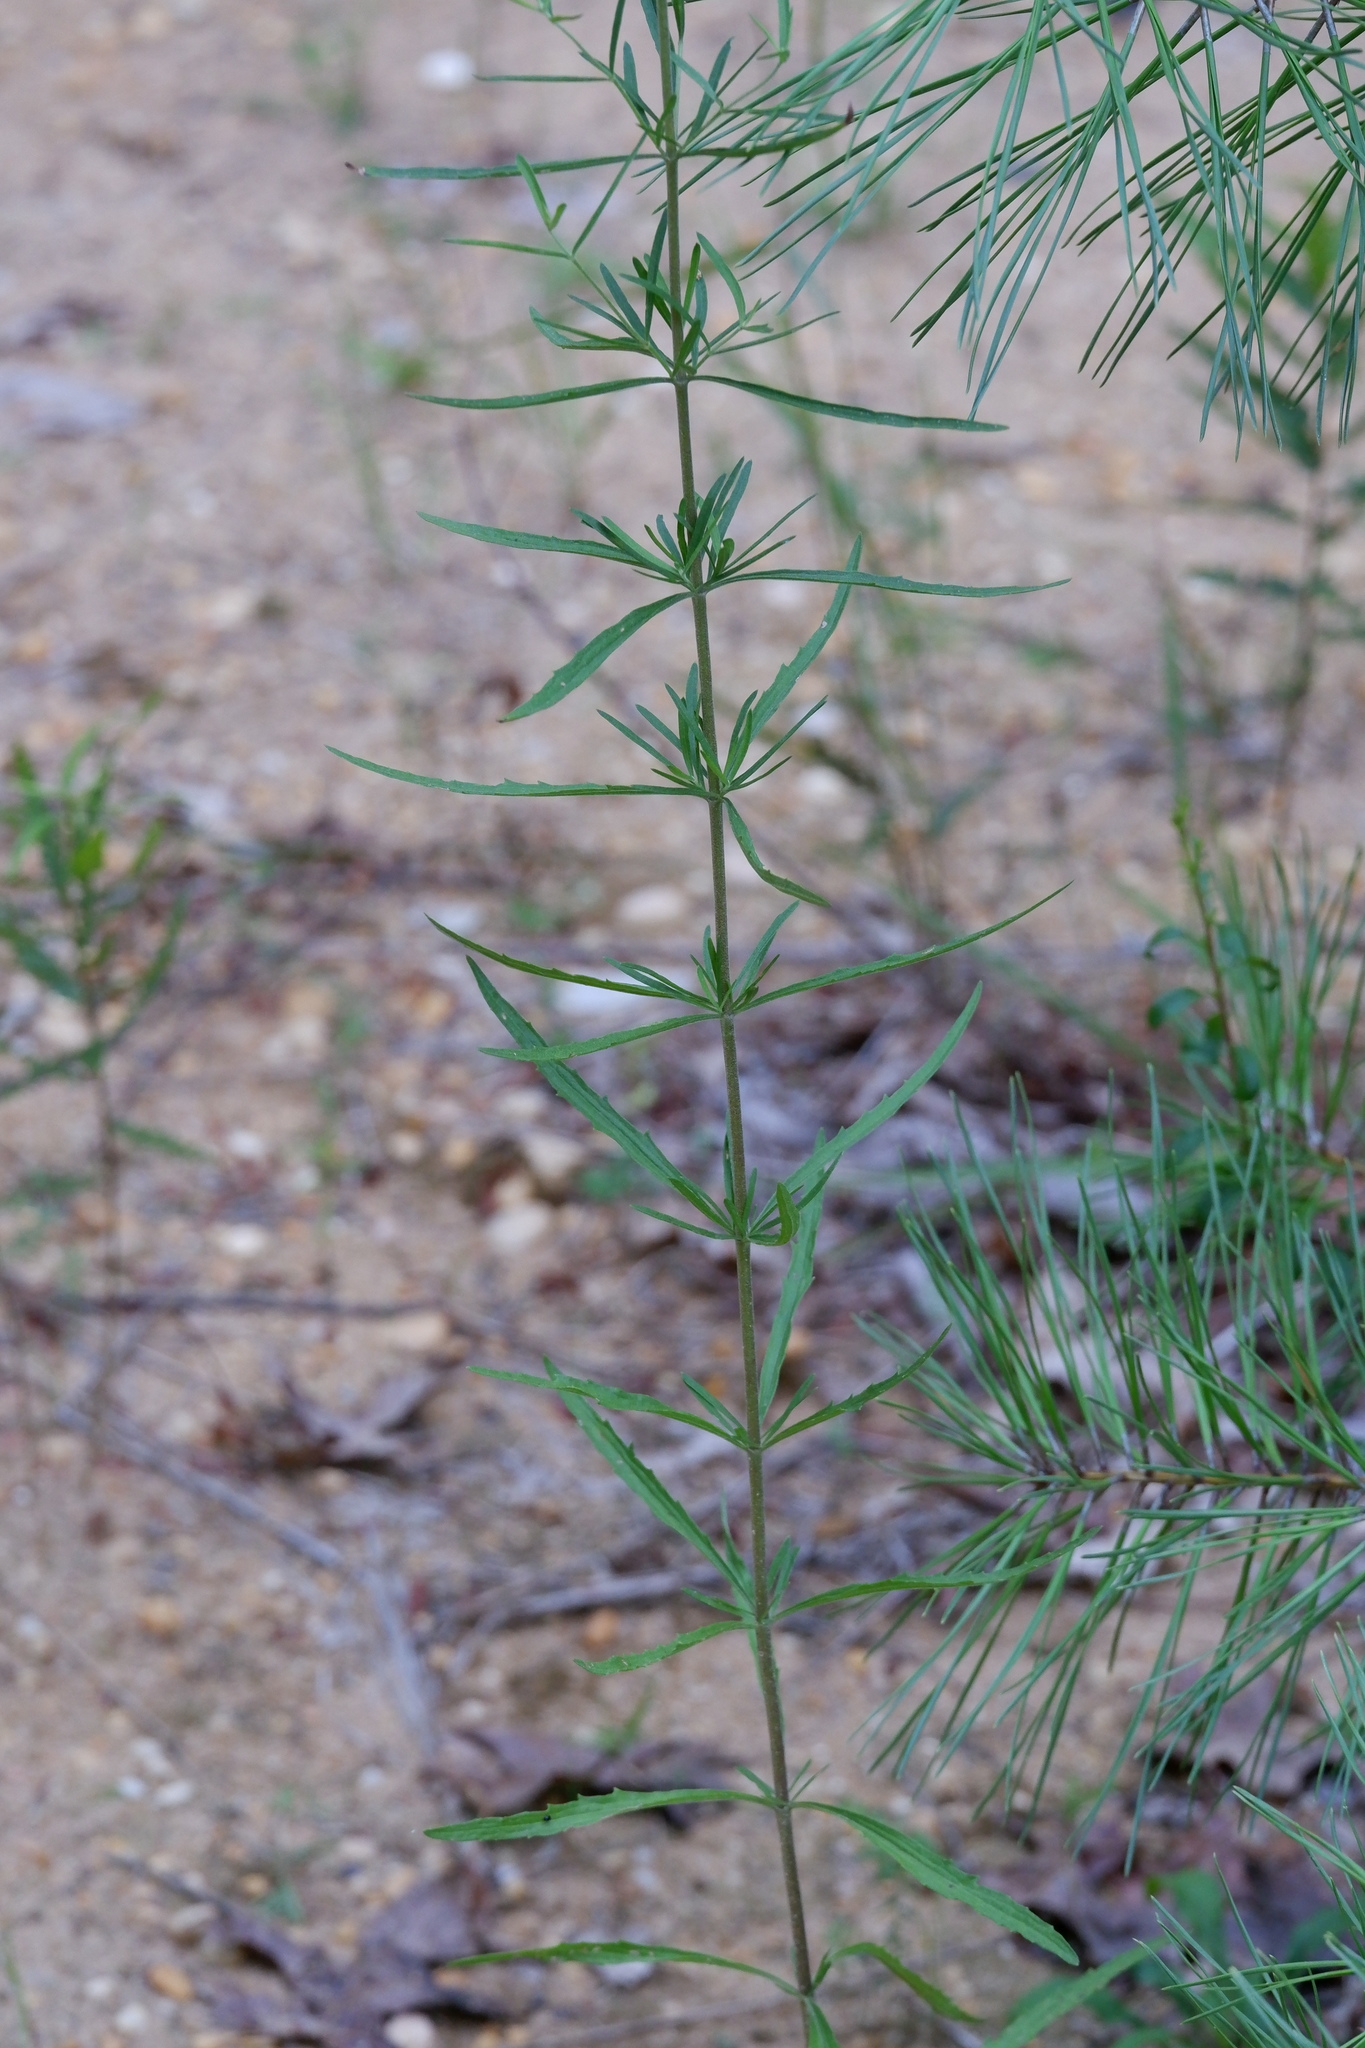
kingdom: Plantae
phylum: Tracheophyta
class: Magnoliopsida
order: Asterales
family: Asteraceae
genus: Eupatorium
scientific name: Eupatorium torreyanum
